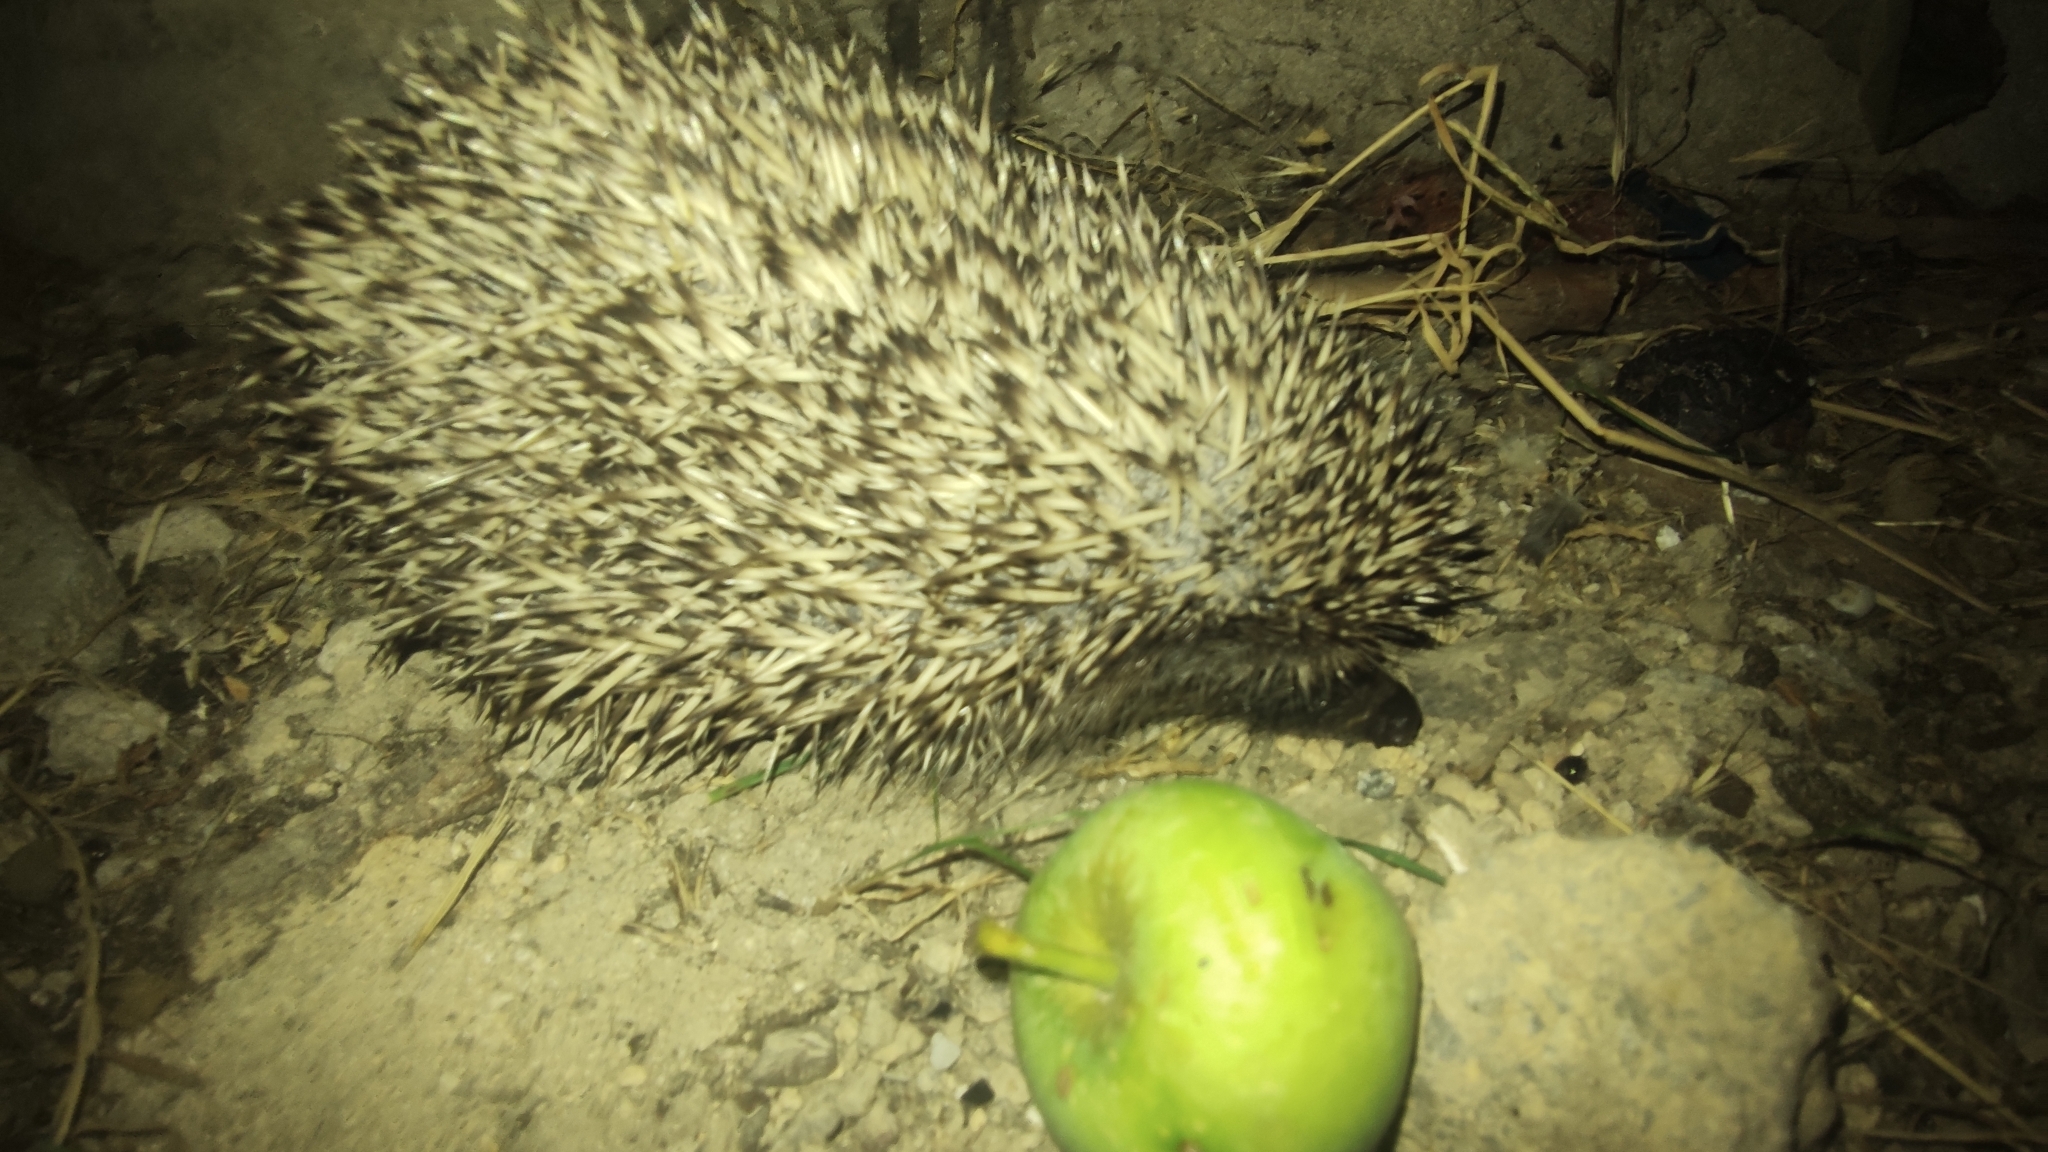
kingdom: Animalia
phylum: Chordata
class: Mammalia
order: Erinaceomorpha
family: Erinaceidae
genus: Erinaceus
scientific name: Erinaceus roumanicus
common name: Northern white-breasted hedgehog
